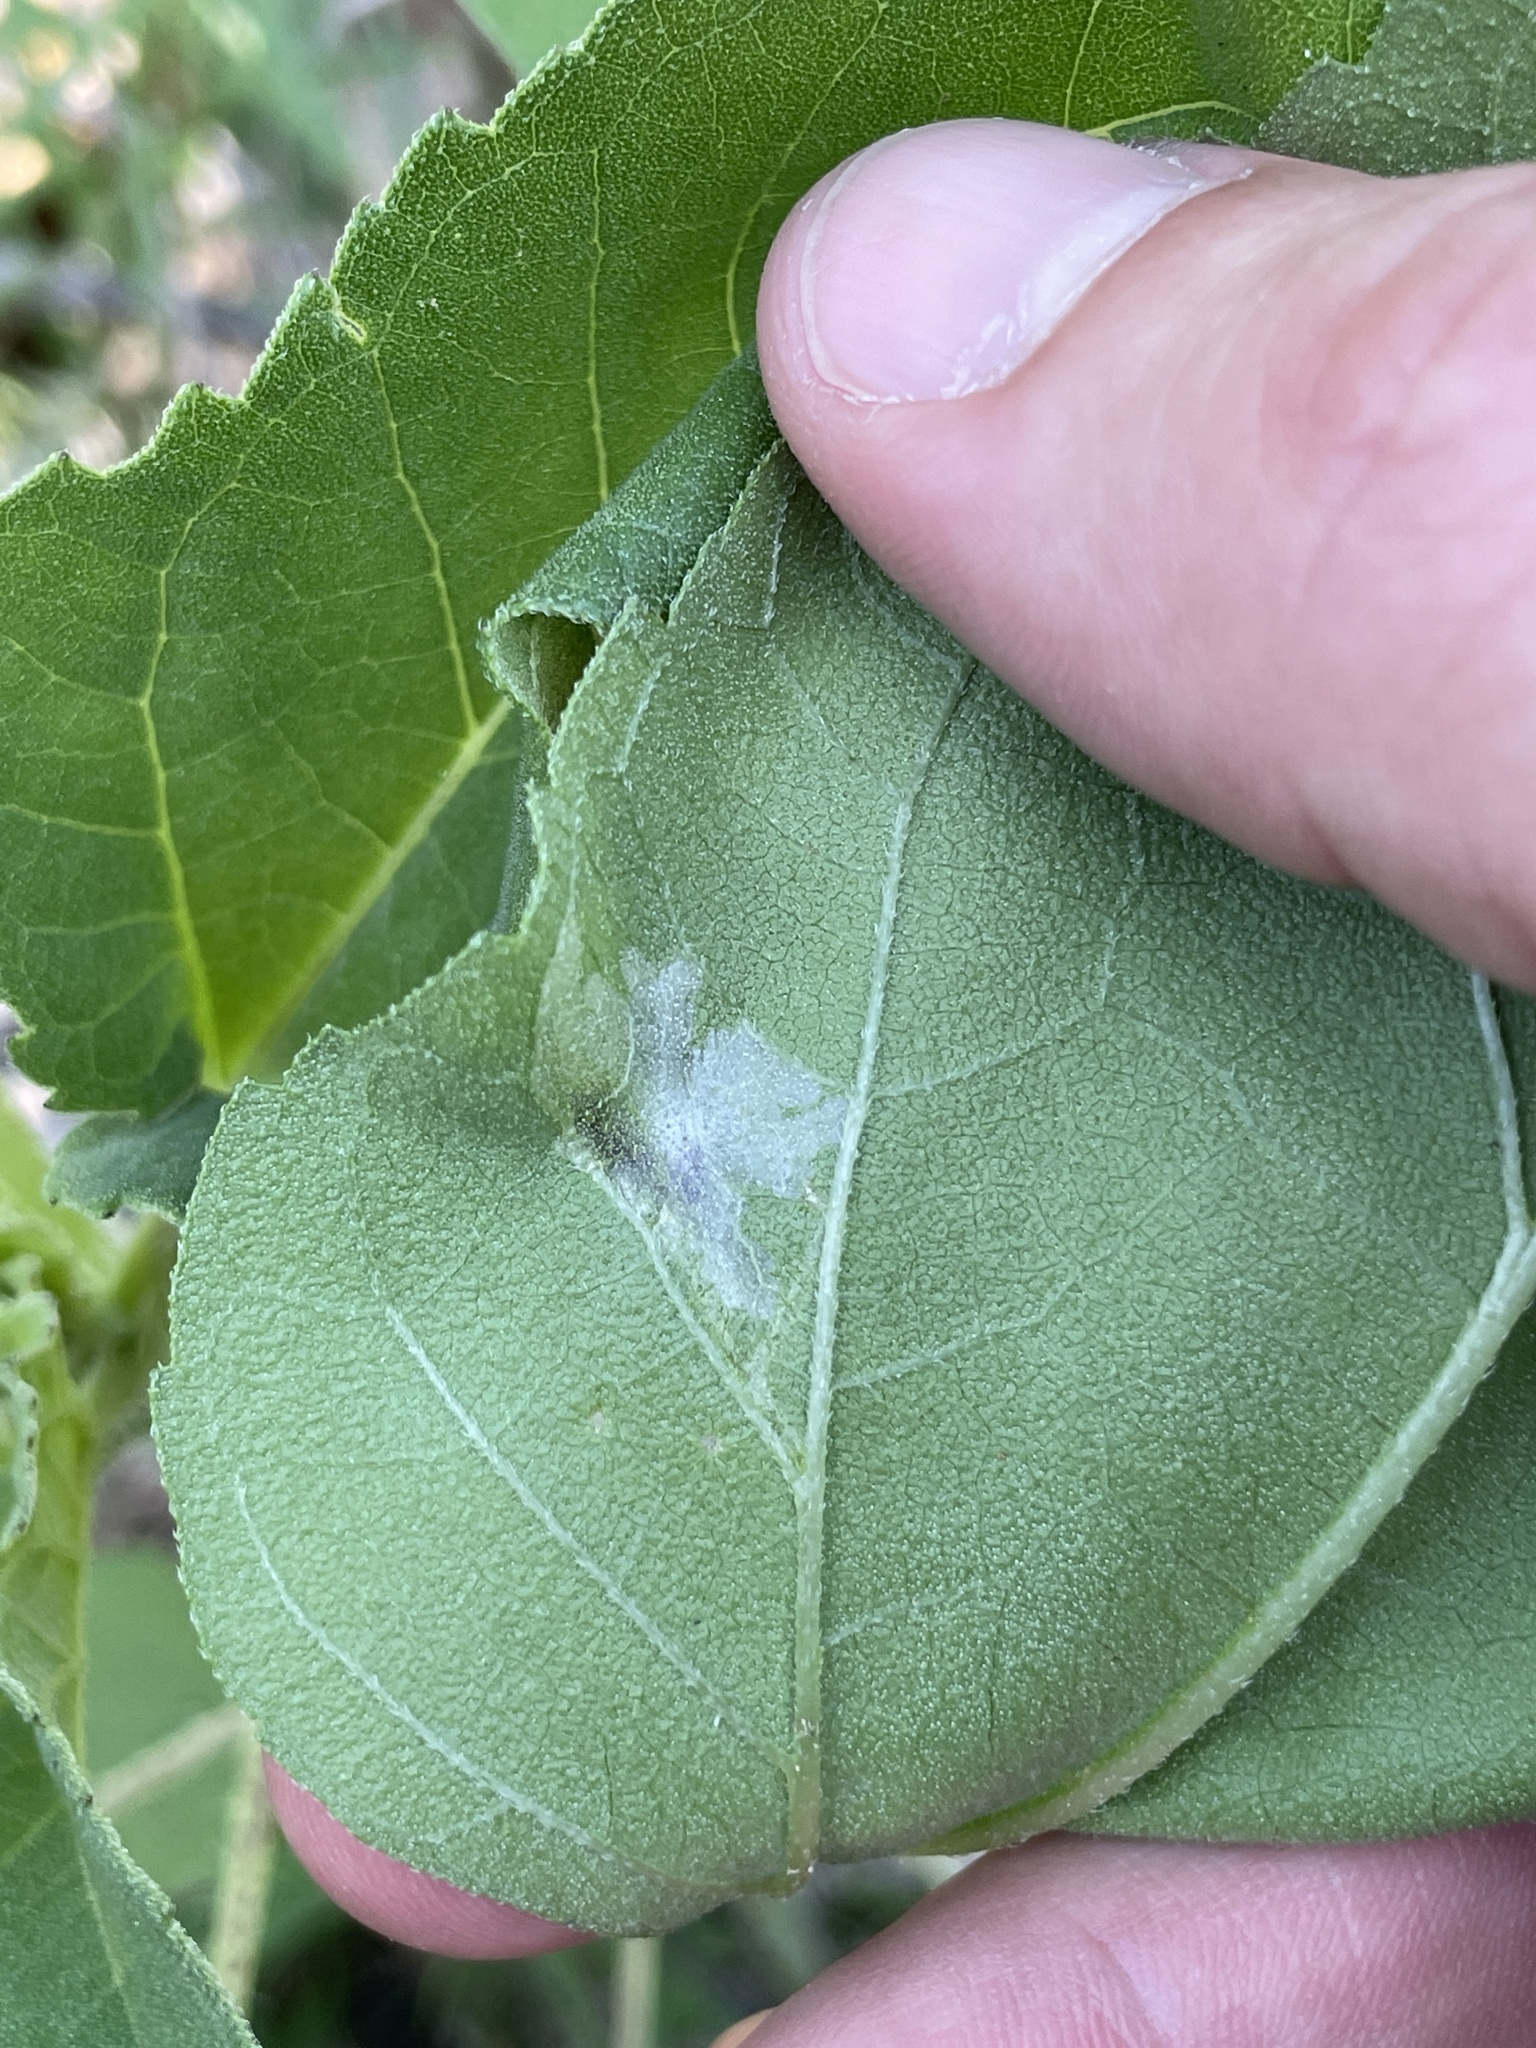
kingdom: Animalia
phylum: Arthropoda
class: Insecta
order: Diptera
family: Agromyzidae
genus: Calycomyza
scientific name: Calycomyza platyptera
